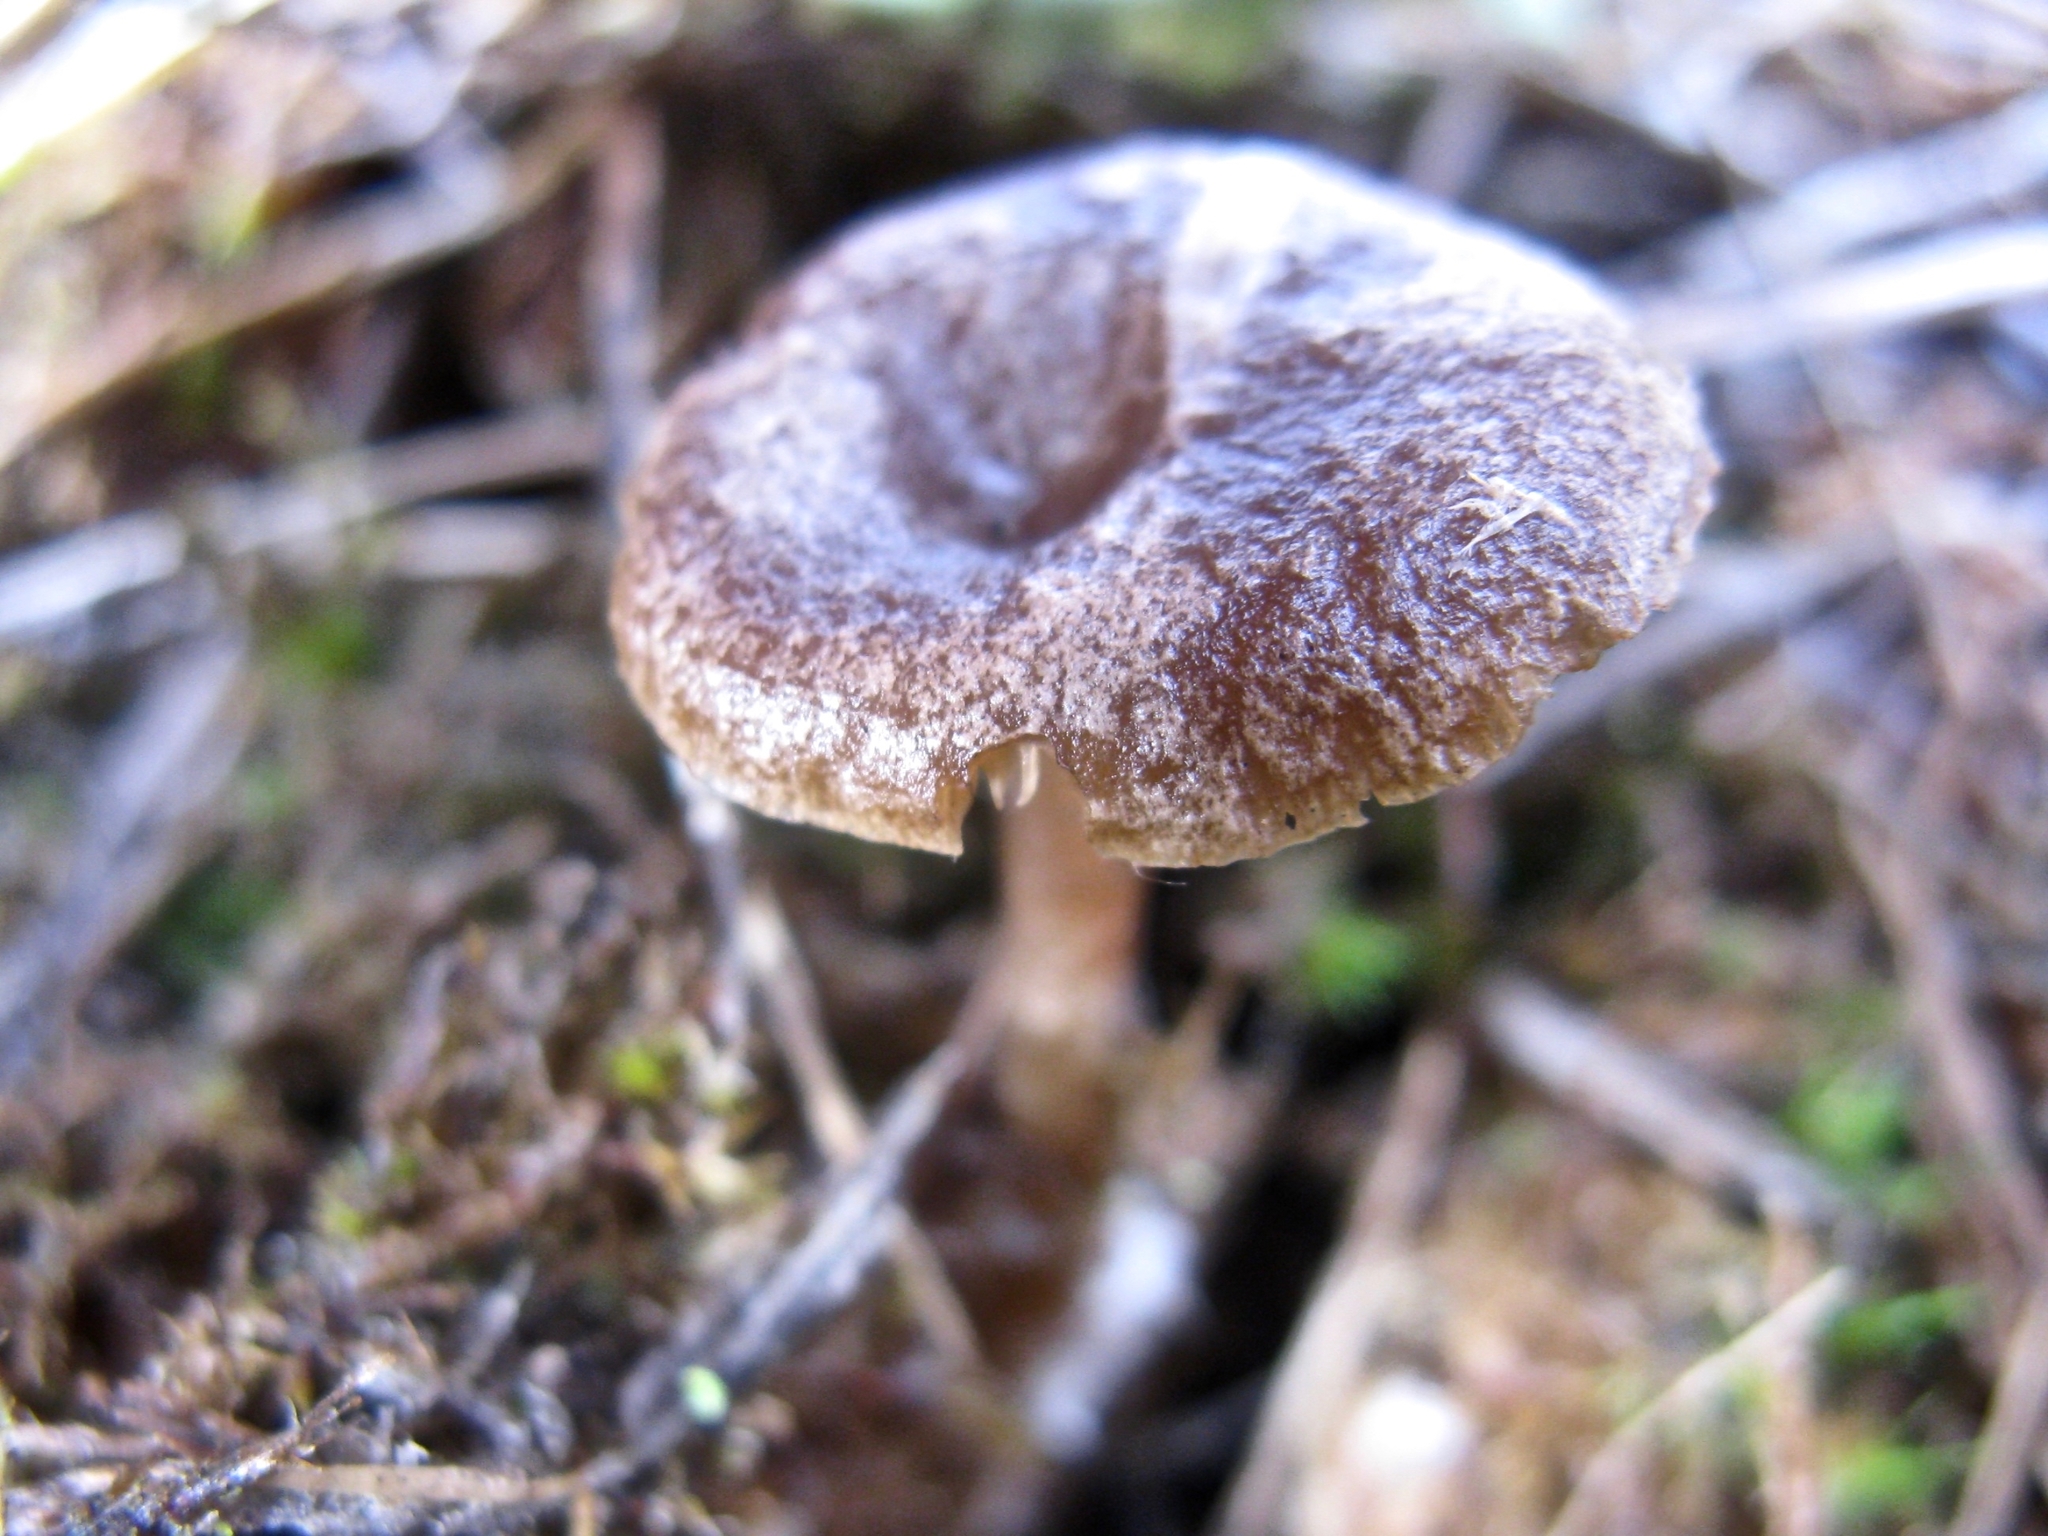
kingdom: Fungi
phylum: Basidiomycota
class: Agaricomycetes
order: Agaricales
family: Entolomataceae
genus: Clitopilus
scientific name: Clitopilus caelatus
